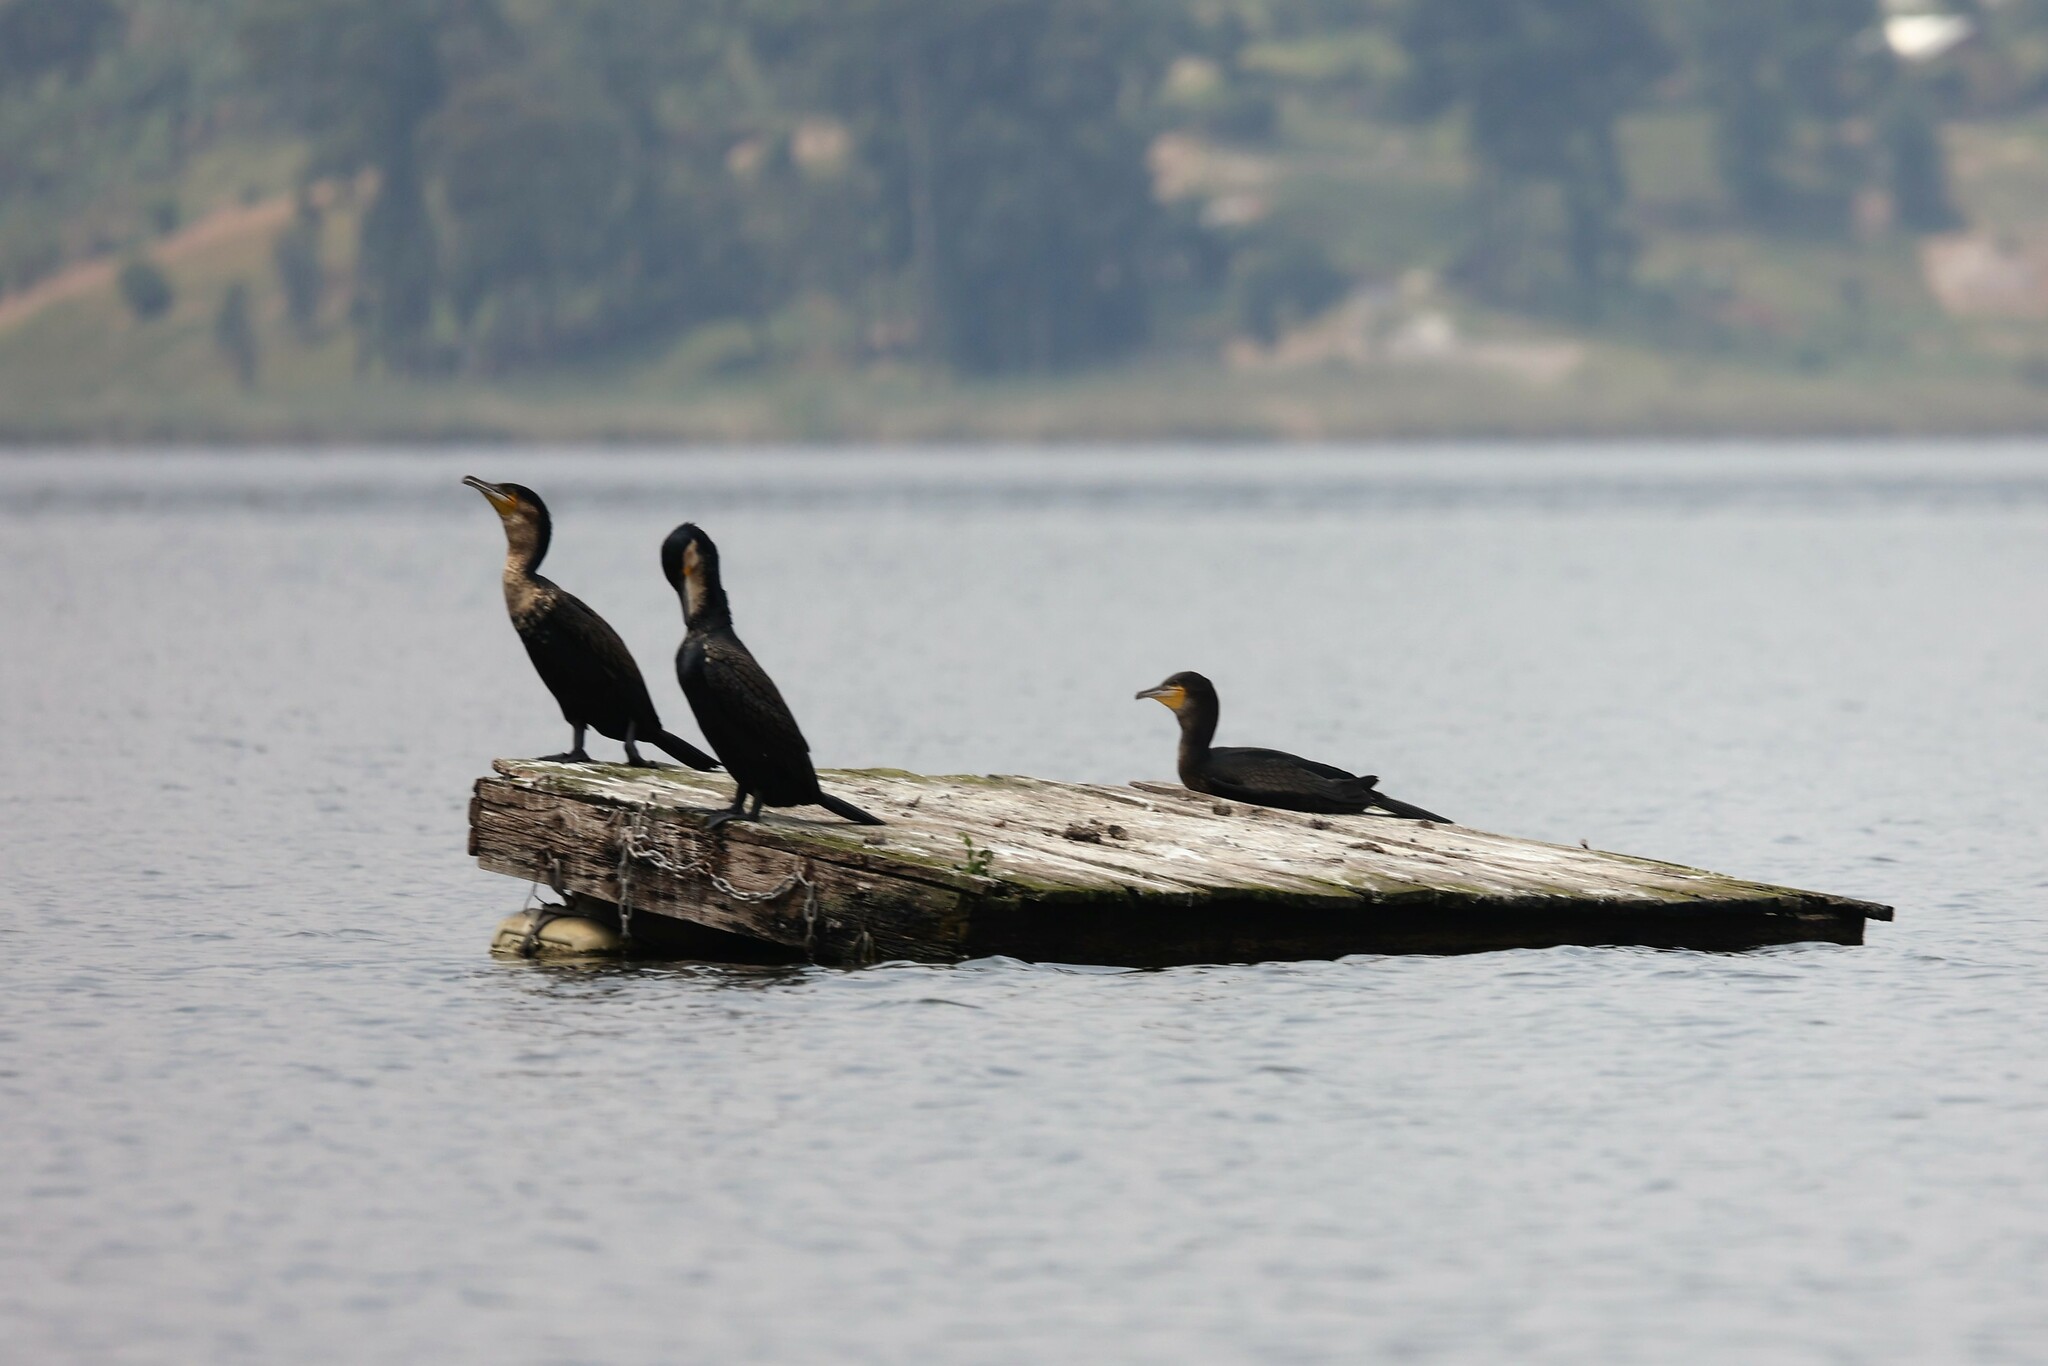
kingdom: Animalia
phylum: Chordata
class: Aves
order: Suliformes
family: Phalacrocoracidae
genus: Phalacrocorax
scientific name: Phalacrocorax carbo
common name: Great cormorant
